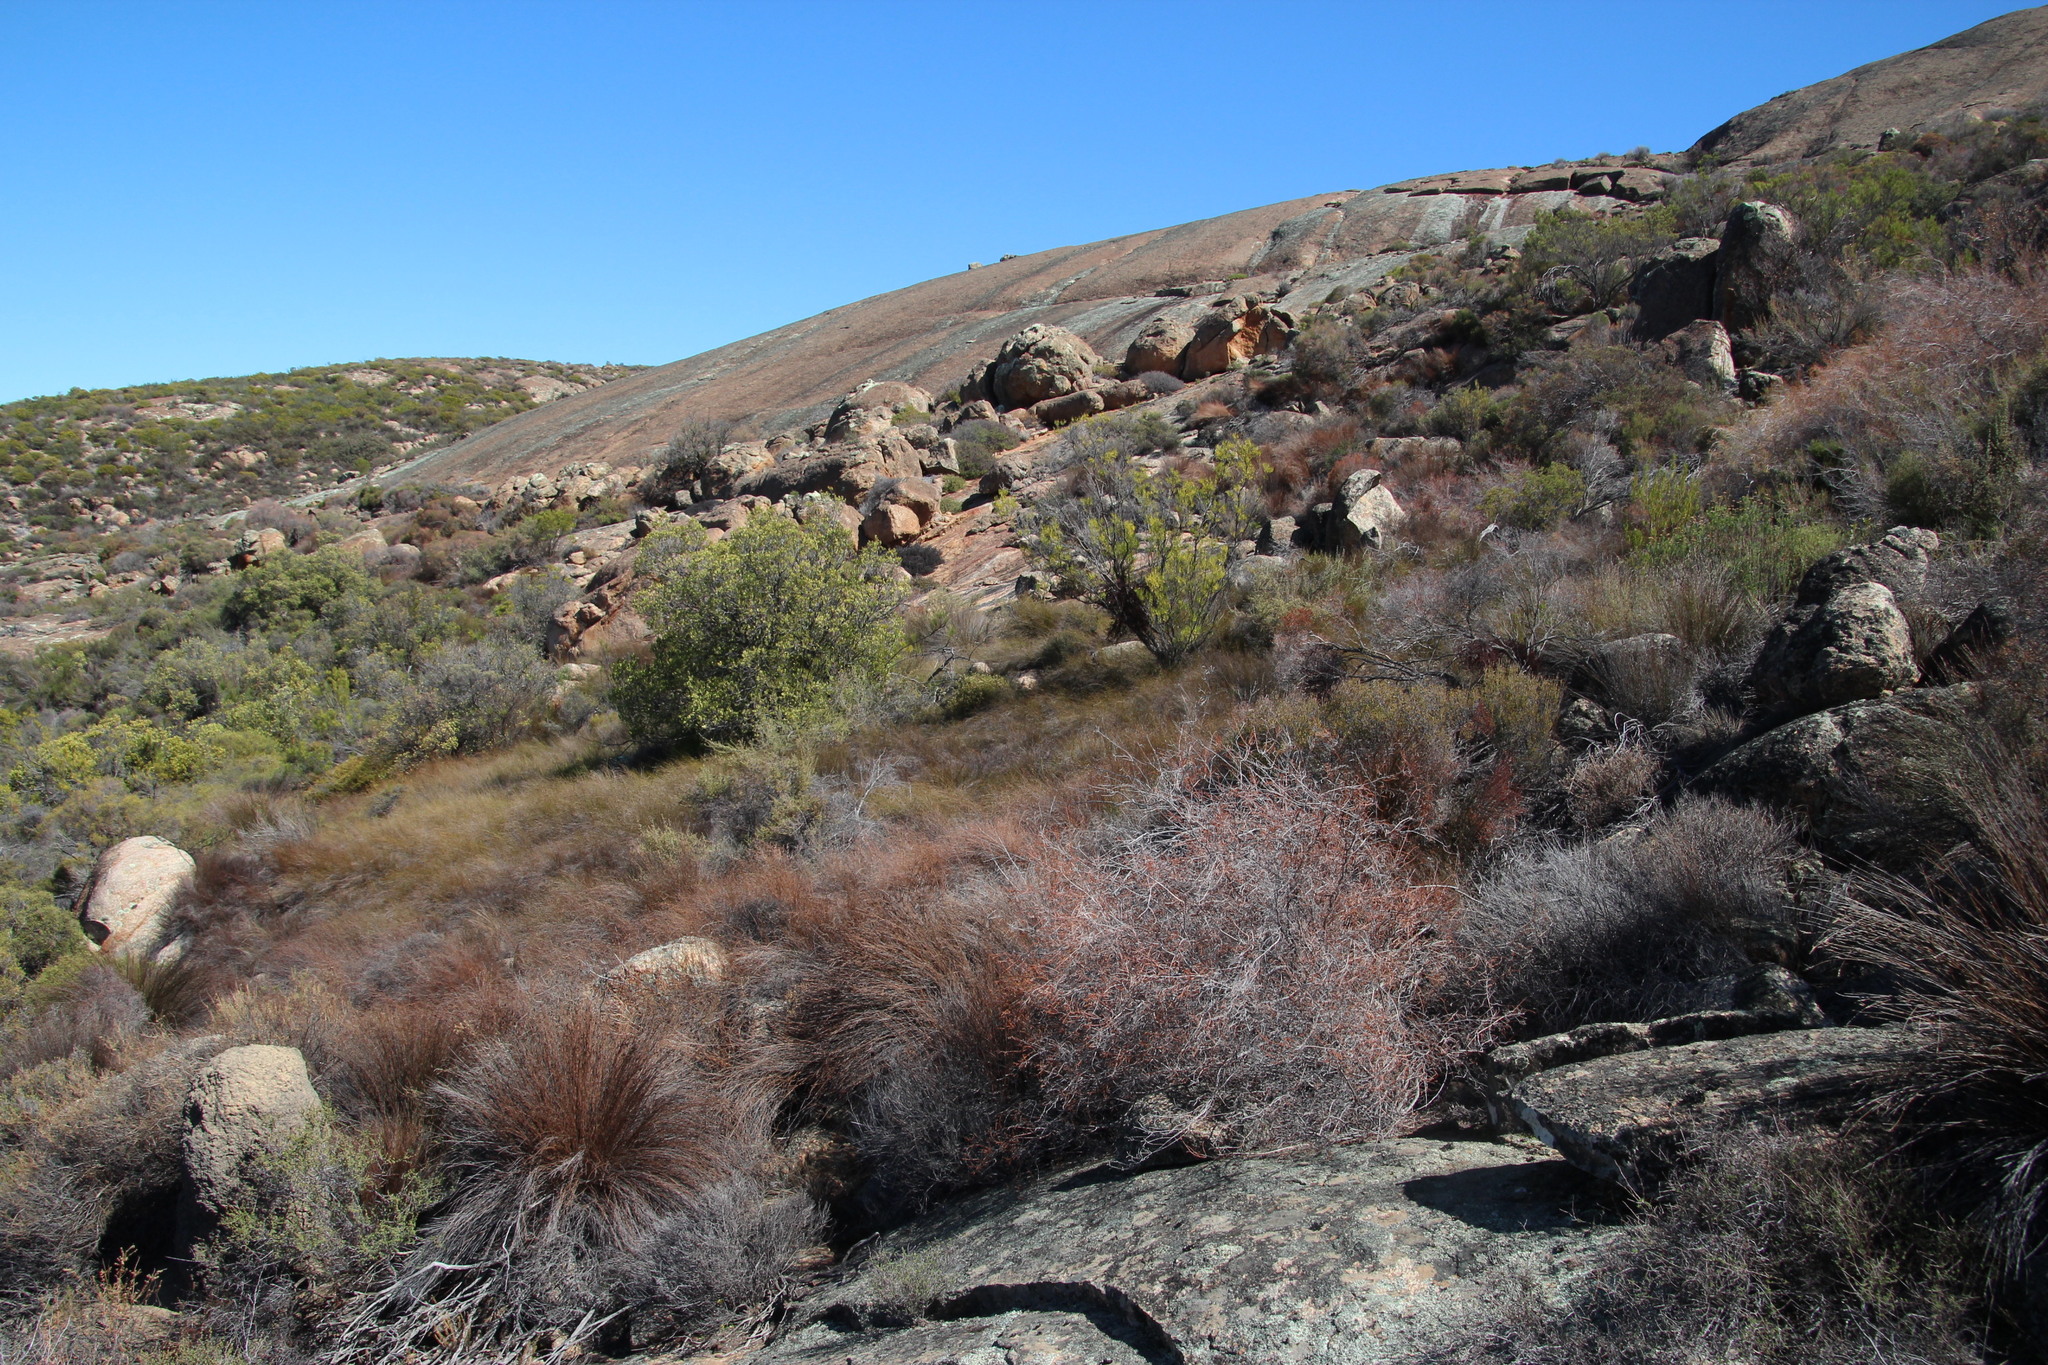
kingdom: Plantae
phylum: Tracheophyta
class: Liliopsida
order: Poales
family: Restionaceae
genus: Restio
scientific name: Restio vilis
